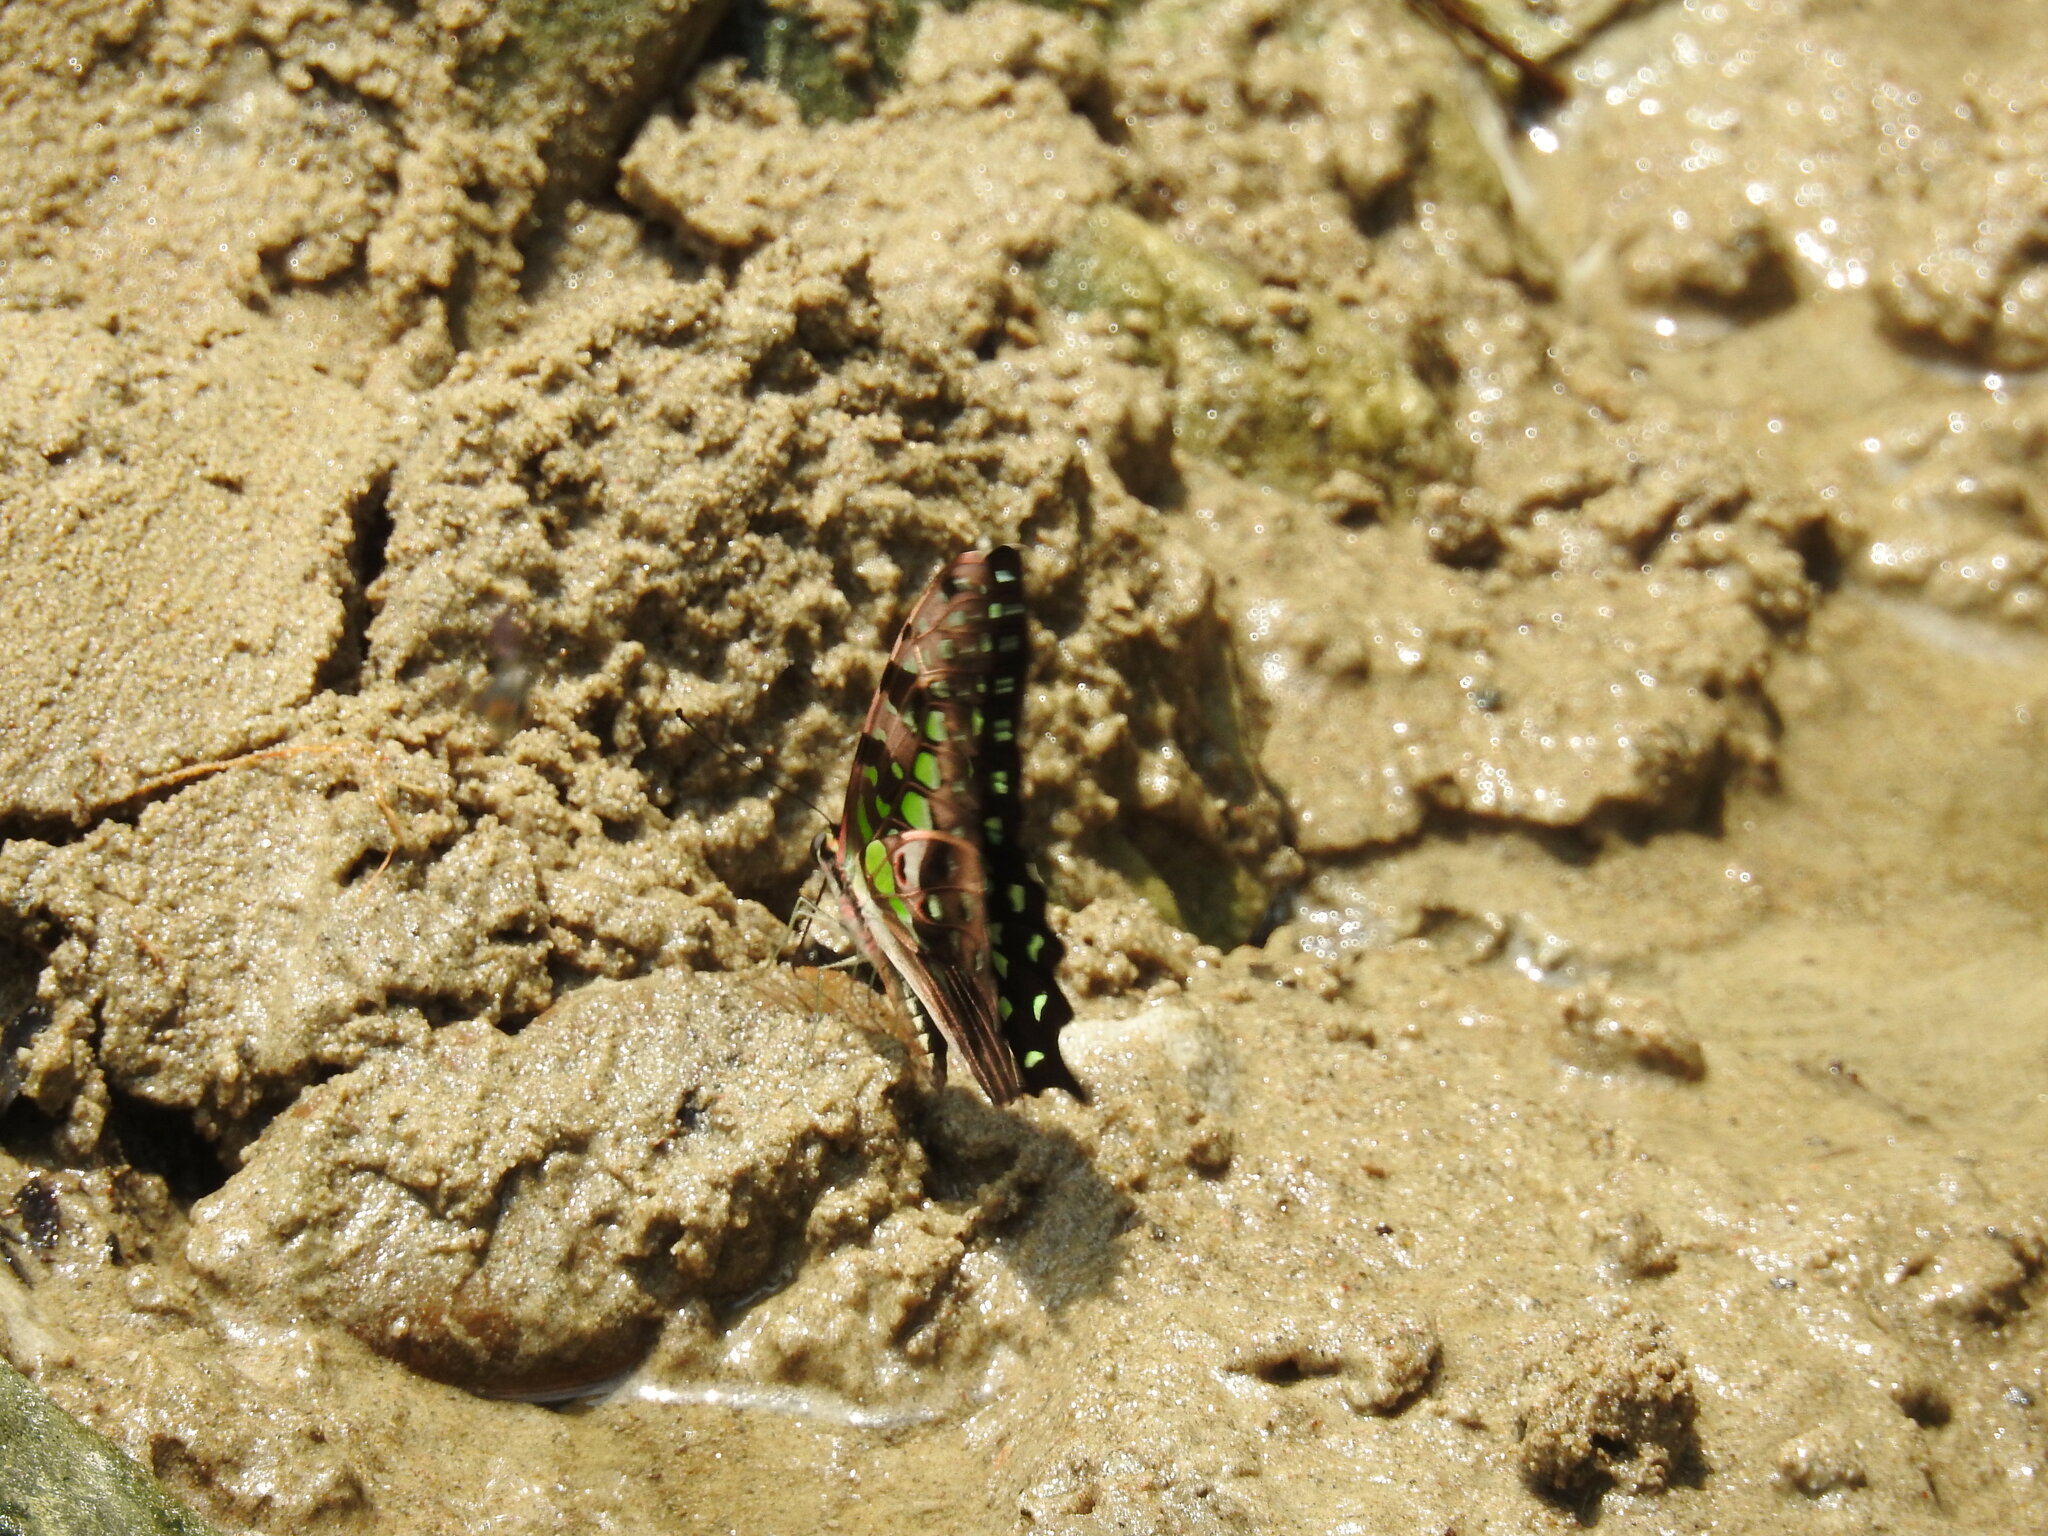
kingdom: Animalia
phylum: Arthropoda
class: Insecta
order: Lepidoptera
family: Papilionidae
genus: Graphium
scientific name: Graphium agamemnon
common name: Tailed jay
